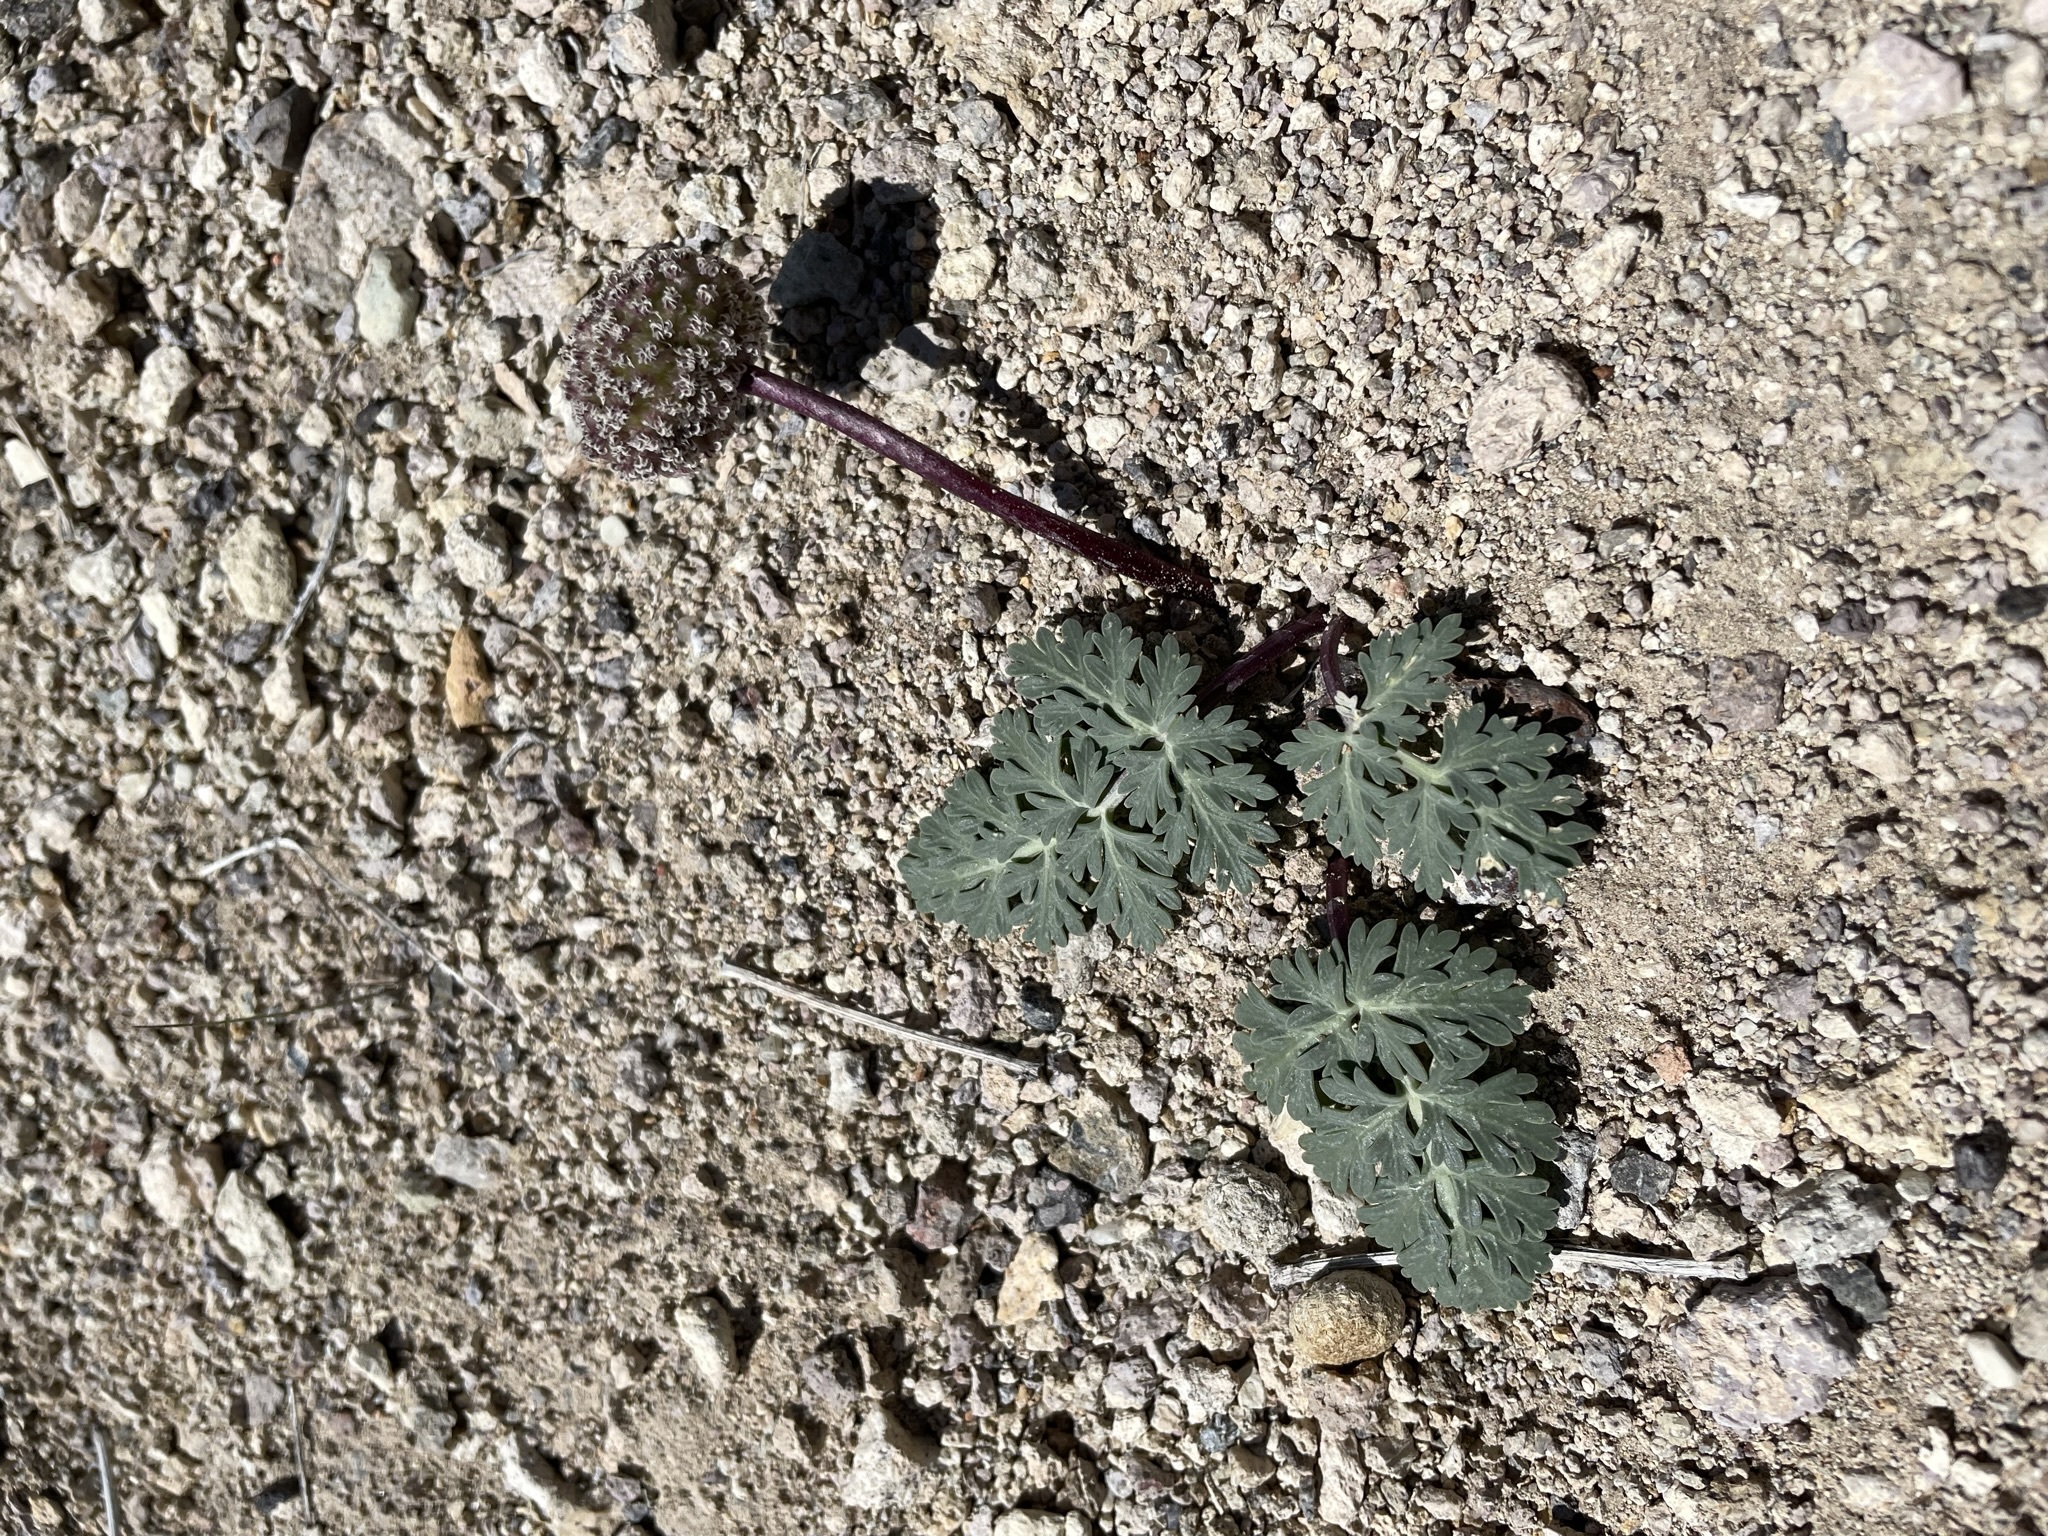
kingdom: Plantae
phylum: Tracheophyta
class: Magnoliopsida
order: Apiales
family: Apiaceae
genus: Cymopterus
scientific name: Cymopterus globosus
